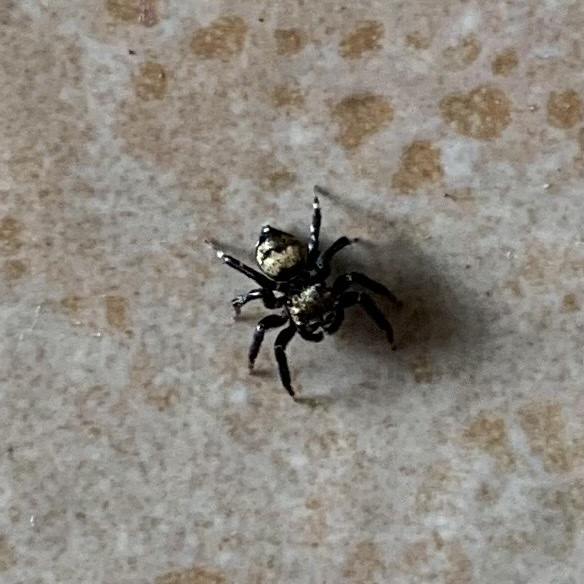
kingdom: Animalia
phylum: Arthropoda
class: Arachnida
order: Araneae
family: Salticidae
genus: Thorelliola
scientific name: Thorelliola ensifera
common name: Jumping spider
